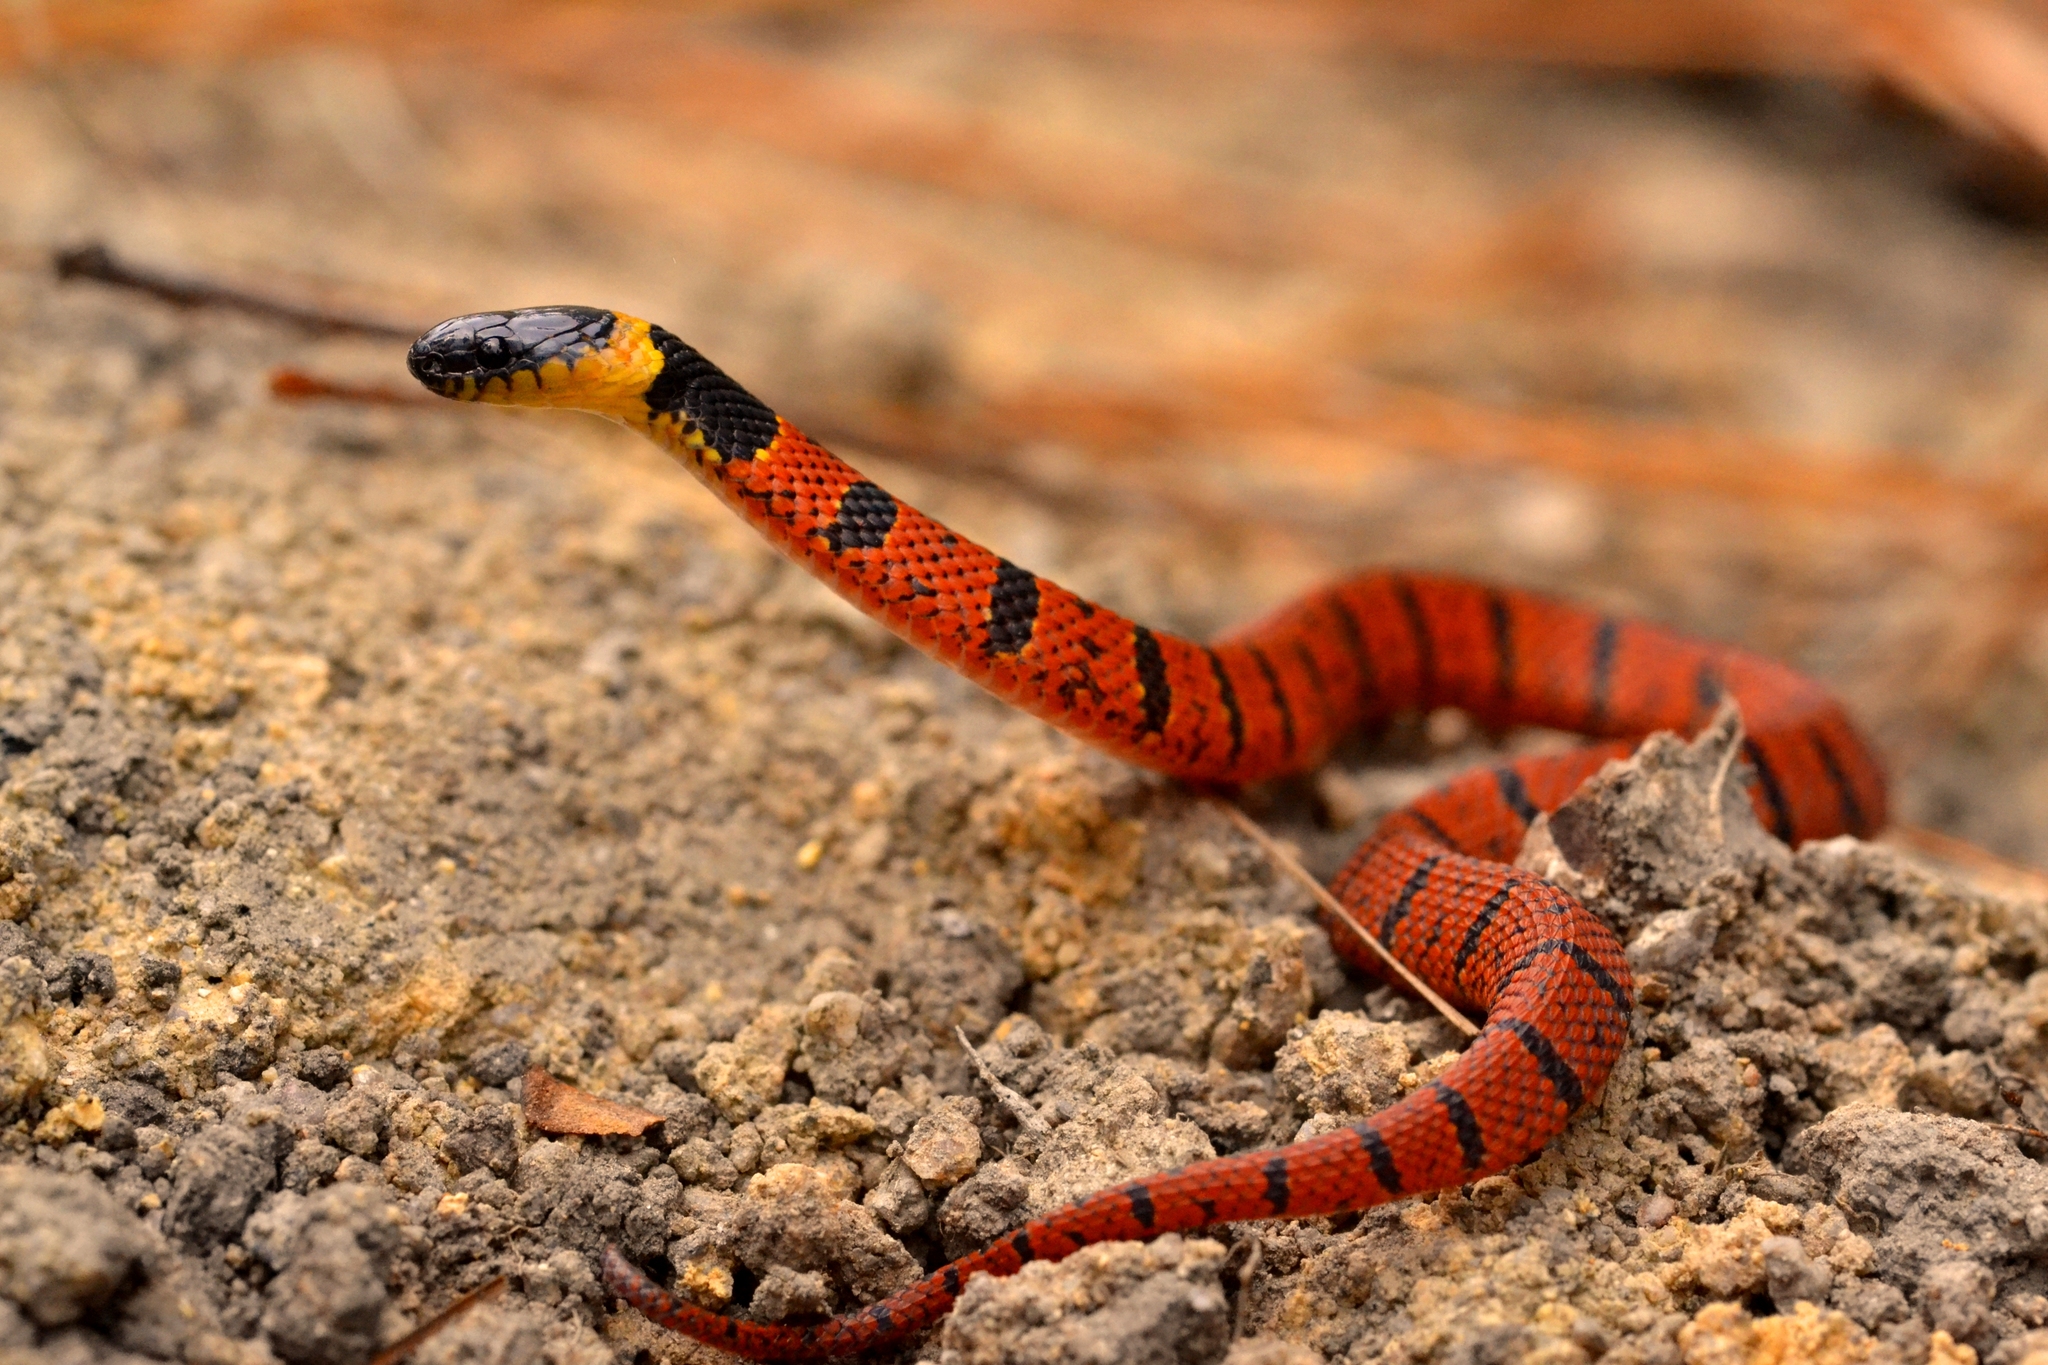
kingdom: Animalia
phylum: Chordata
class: Squamata
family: Colubridae
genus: Ninia
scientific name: Ninia sebae
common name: Redback coffee snake
